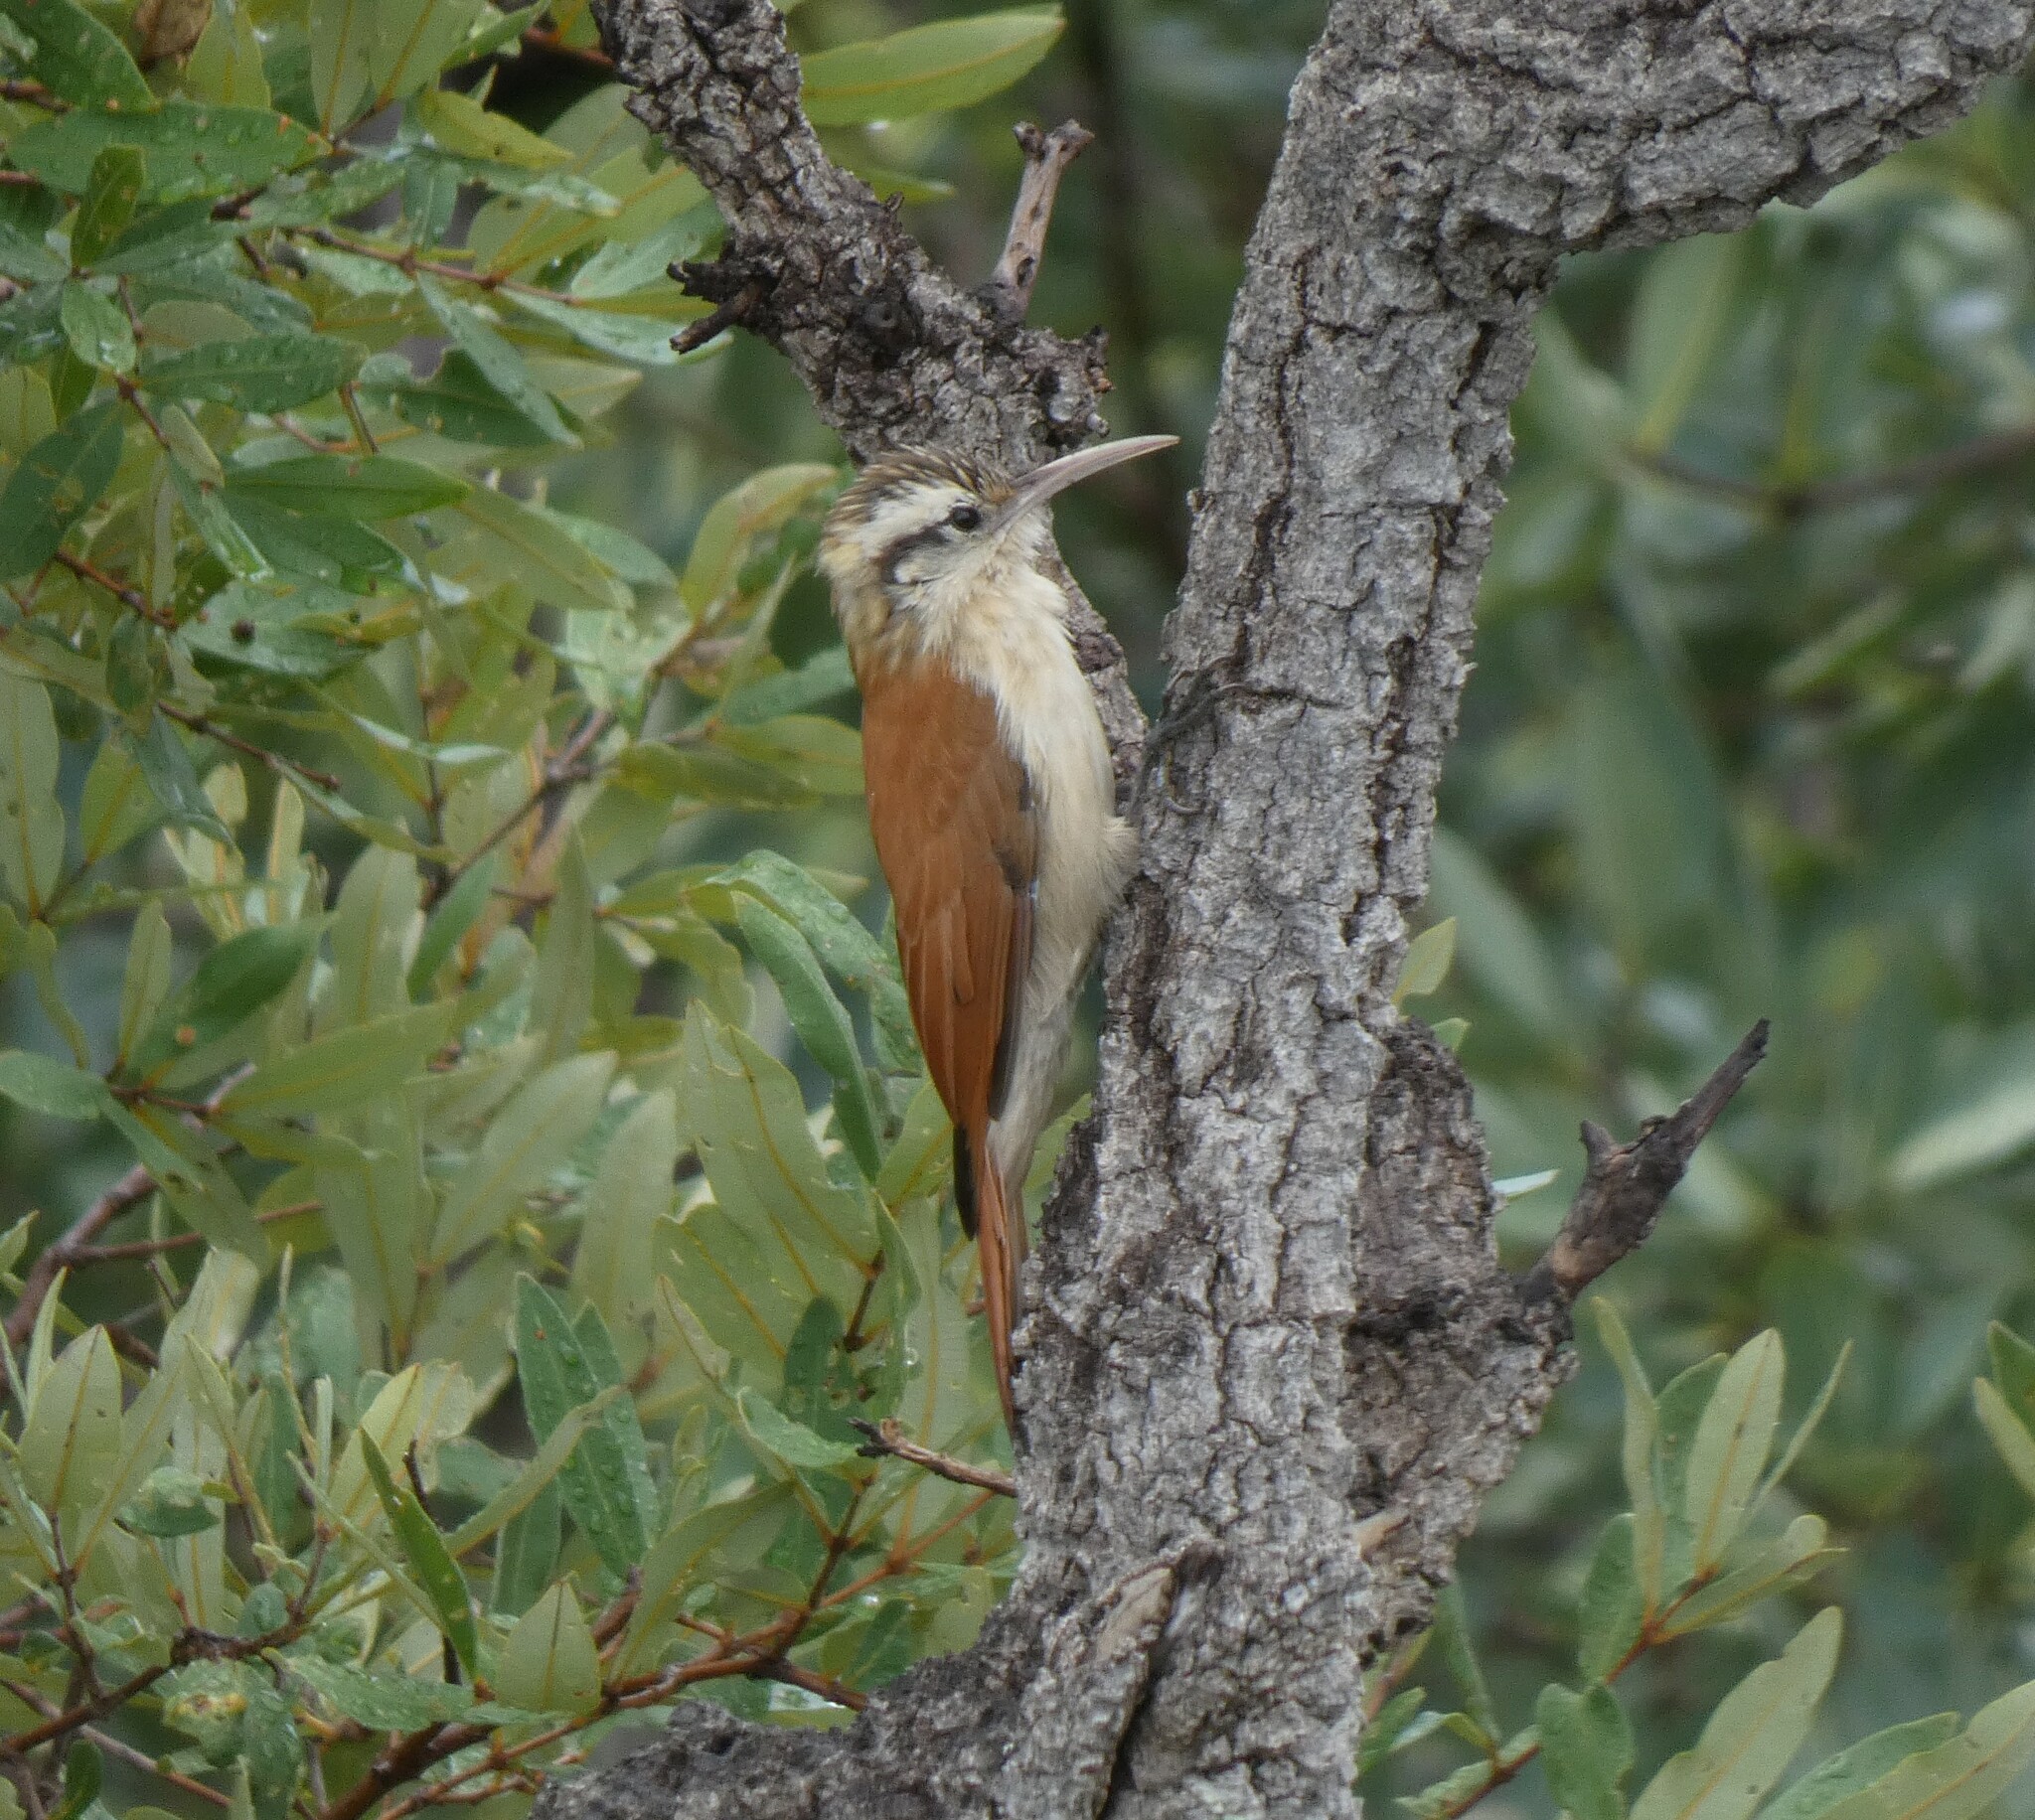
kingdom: Animalia
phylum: Chordata
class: Aves
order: Passeriformes
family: Furnariidae
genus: Lepidocolaptes
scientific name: Lepidocolaptes angustirostris
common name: Narrow-billed woodcreeper
